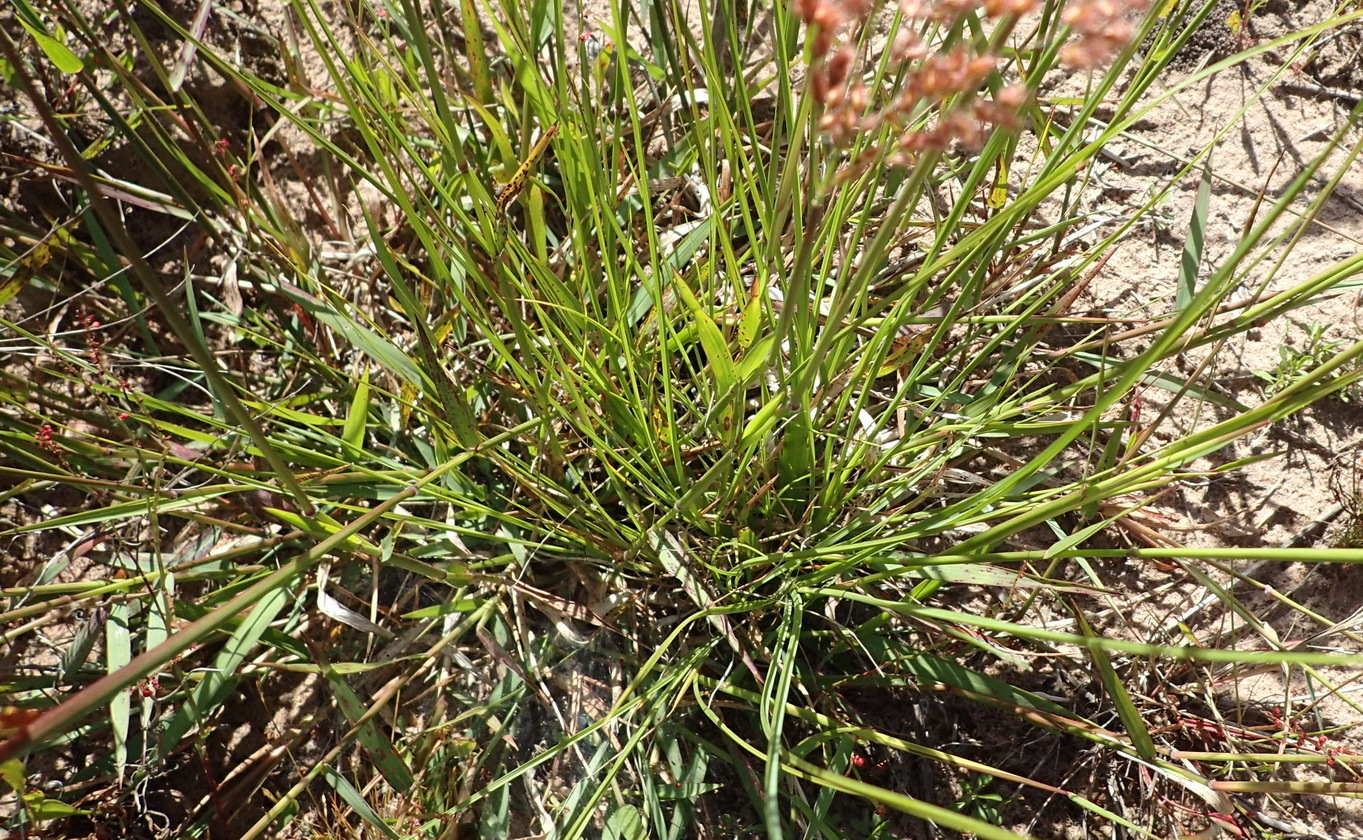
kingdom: Plantae
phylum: Tracheophyta
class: Liliopsida
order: Poales
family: Poaceae
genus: Melinis
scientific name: Melinis repens
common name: Rose natal grass
